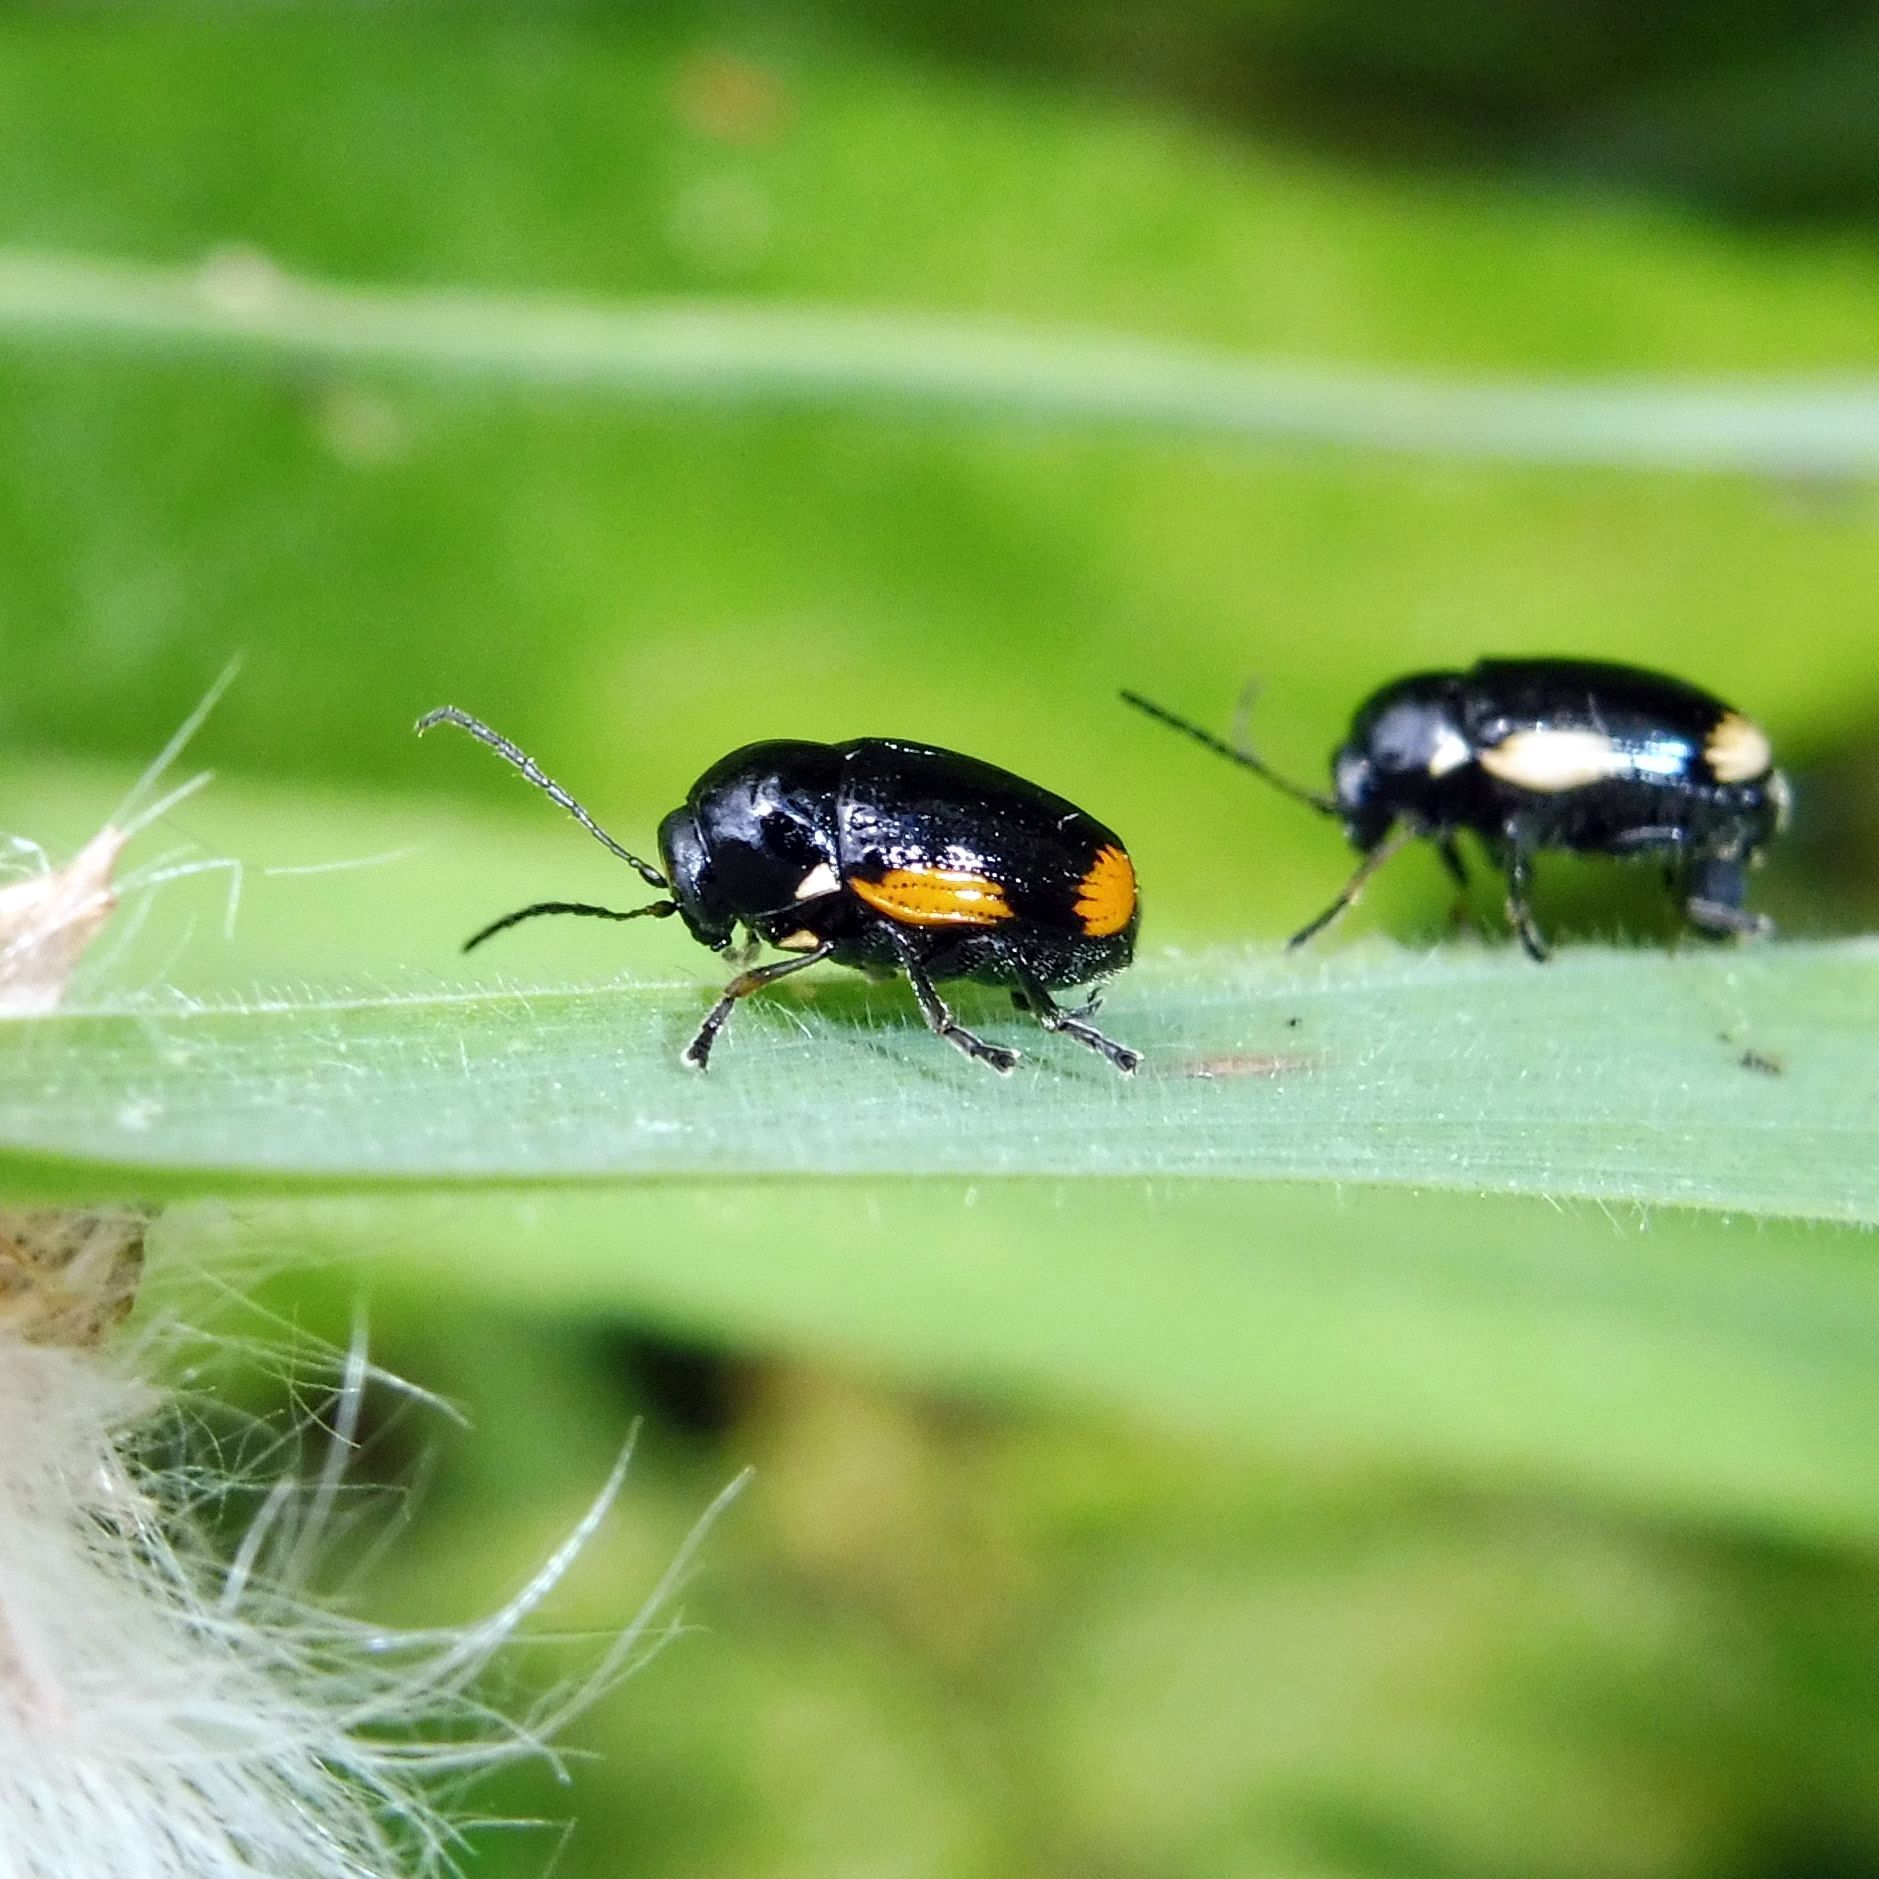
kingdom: Animalia
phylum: Arthropoda
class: Insecta
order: Coleoptera
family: Chrysomelidae
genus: Cryptocephalus
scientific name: Cryptocephalus moraei
